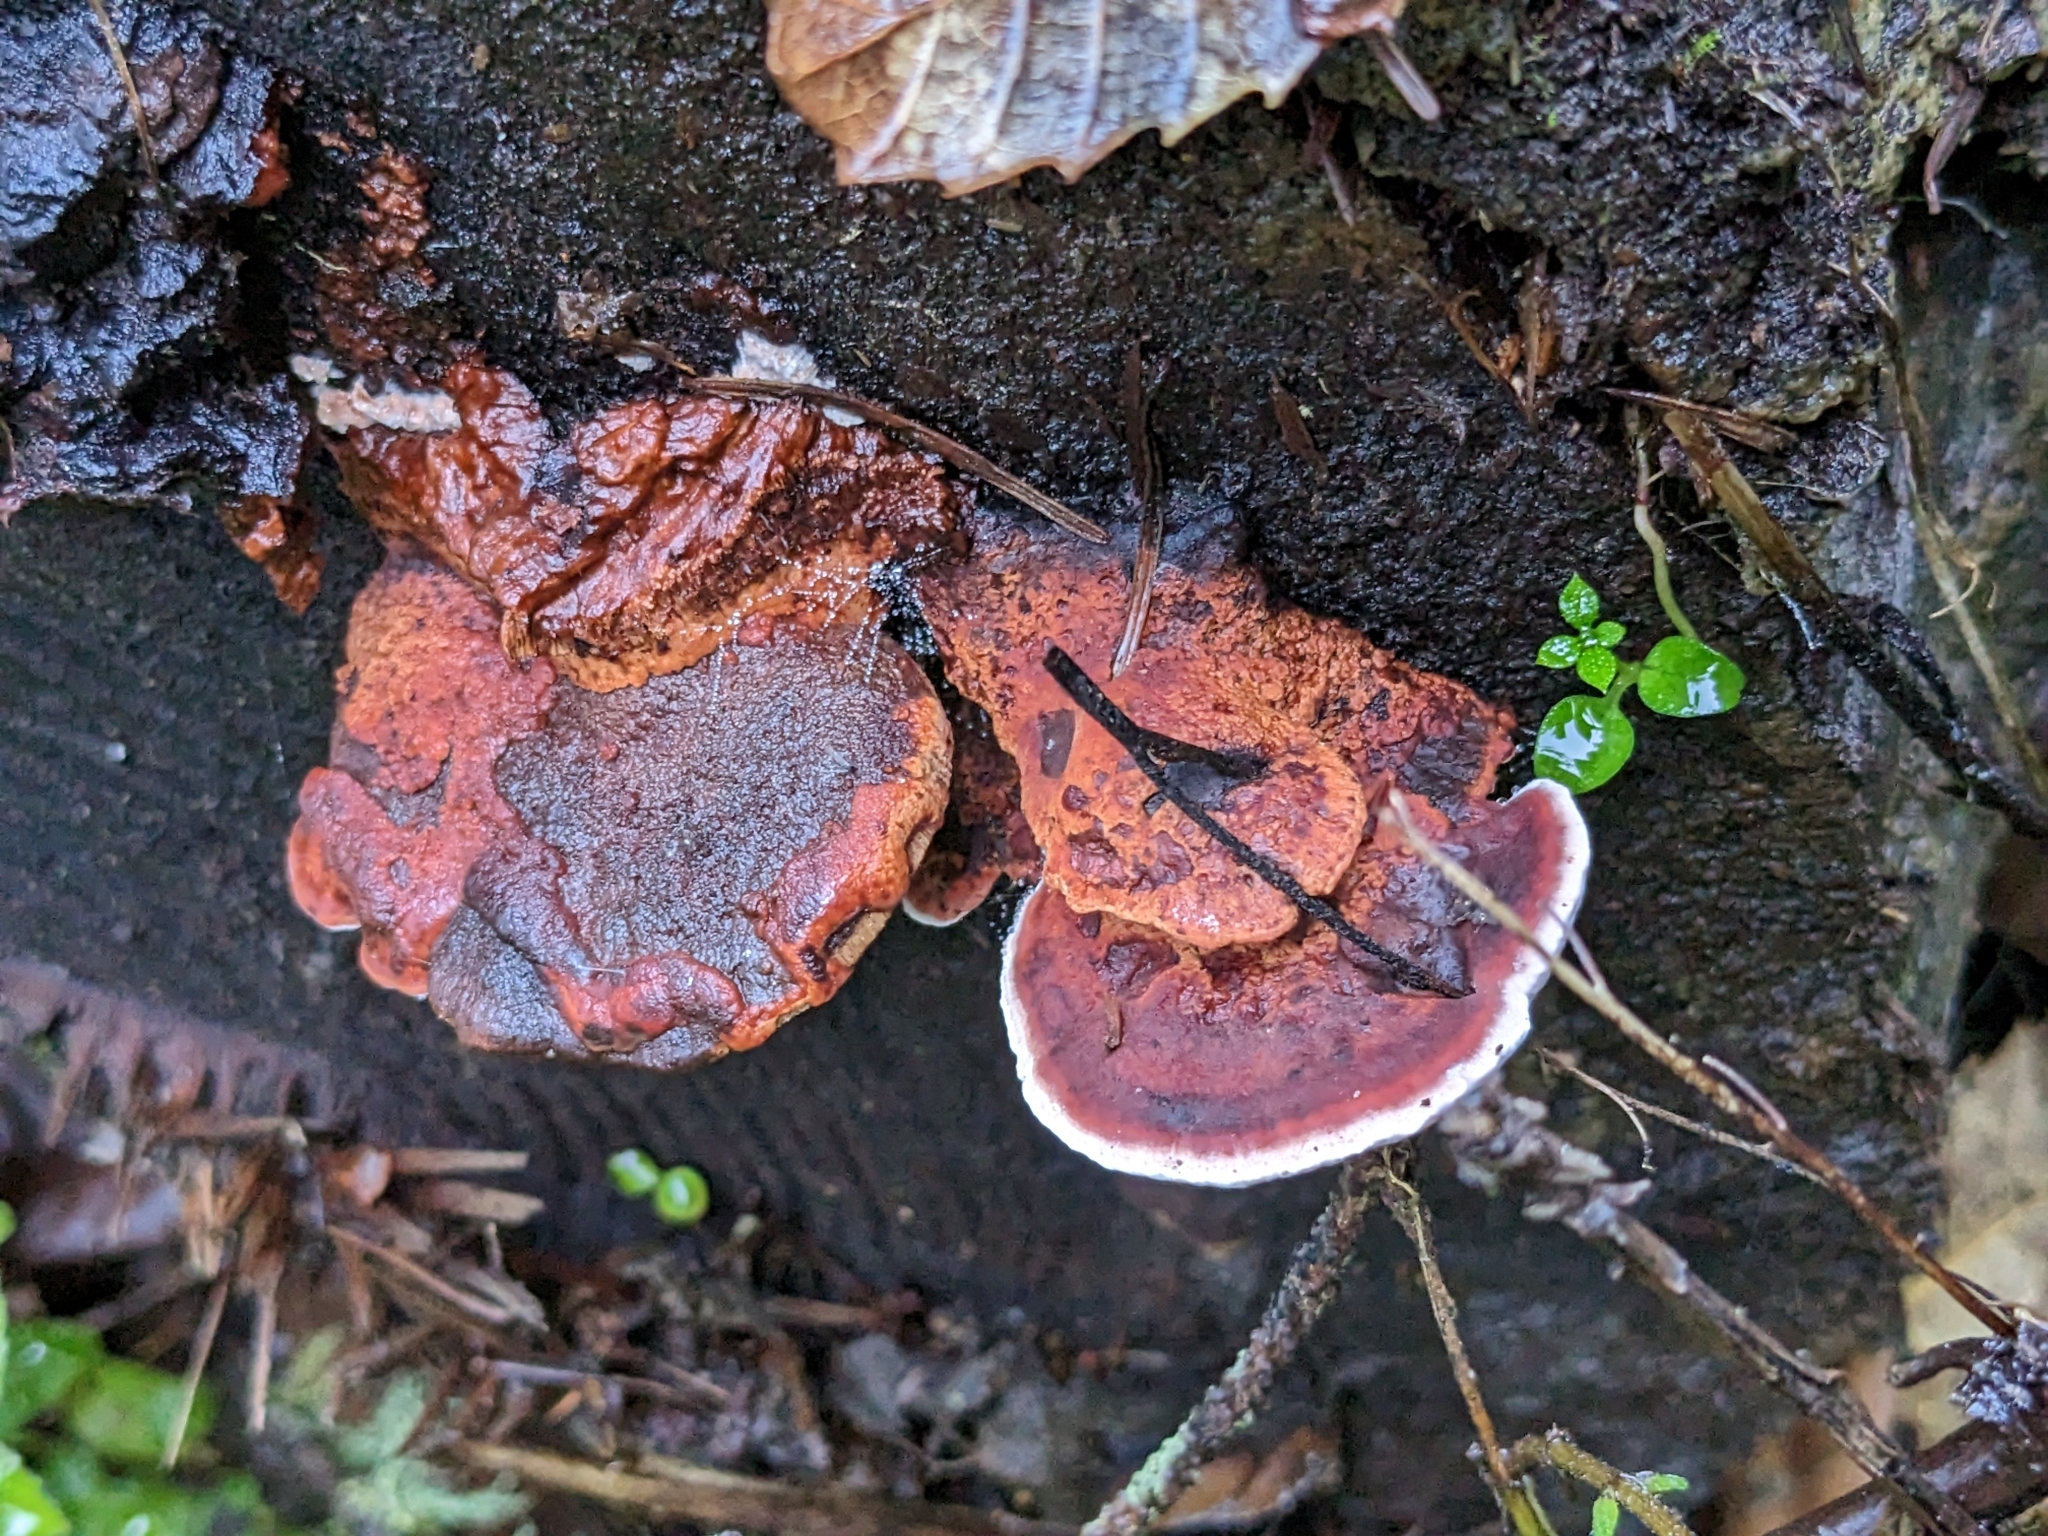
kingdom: Fungi
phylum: Basidiomycota
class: Agaricomycetes
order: Polyporales
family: Fomitopsidaceae
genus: Rhodofomes
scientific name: Rhodofomes cajanderi
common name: Rosy conk
